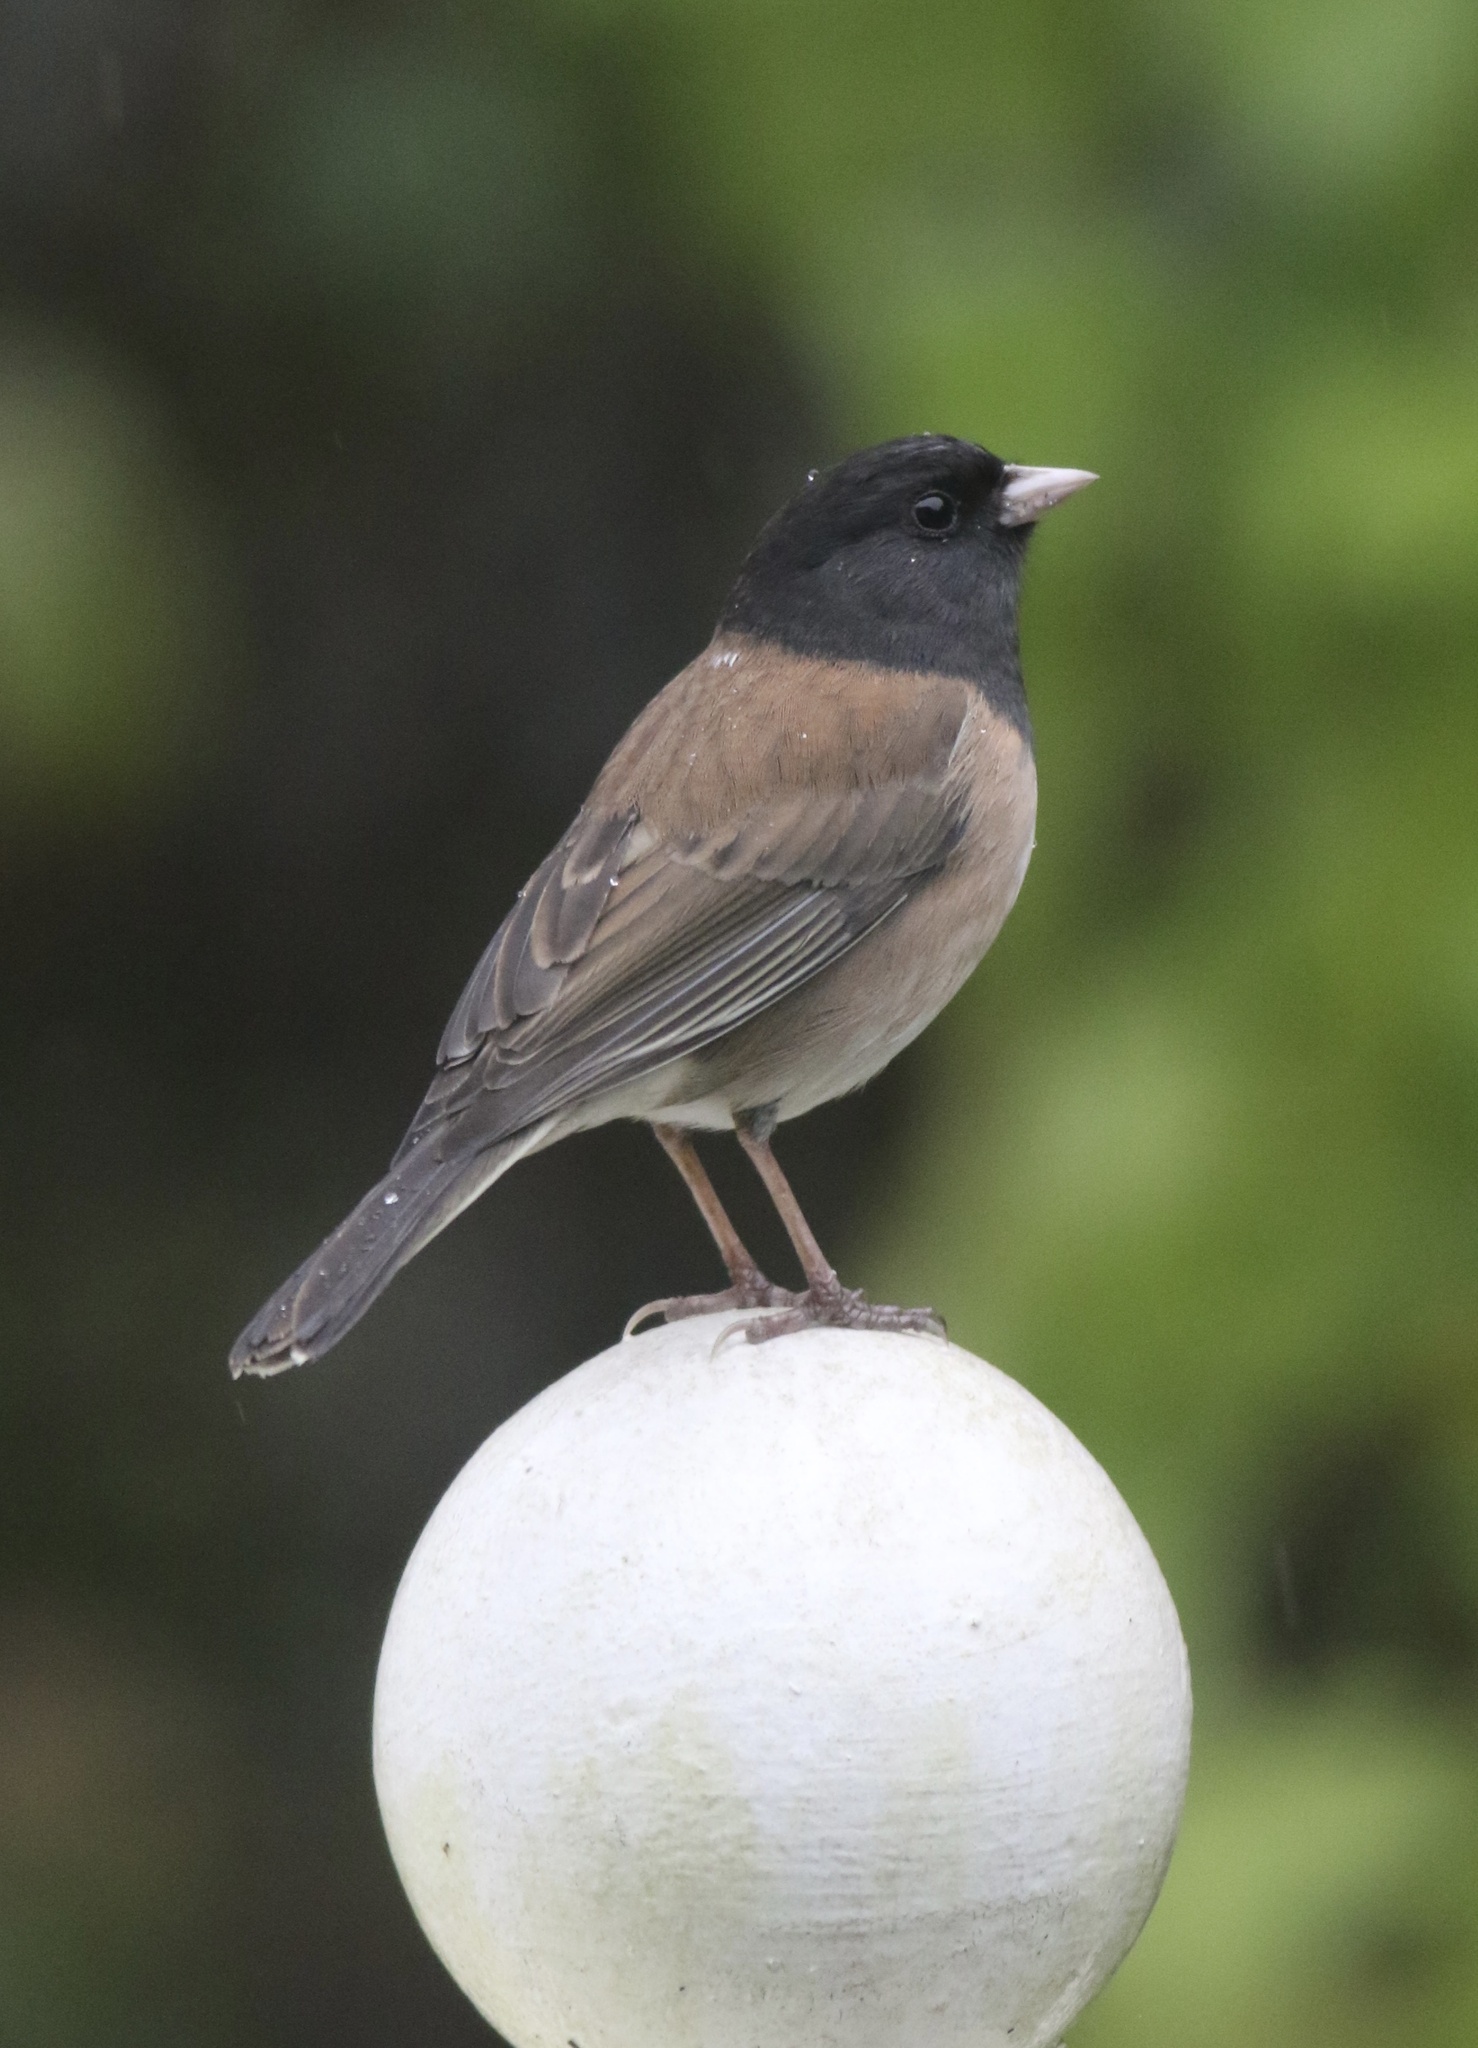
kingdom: Animalia
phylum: Chordata
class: Aves
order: Passeriformes
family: Passerellidae
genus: Junco
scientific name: Junco hyemalis
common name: Dark-eyed junco
